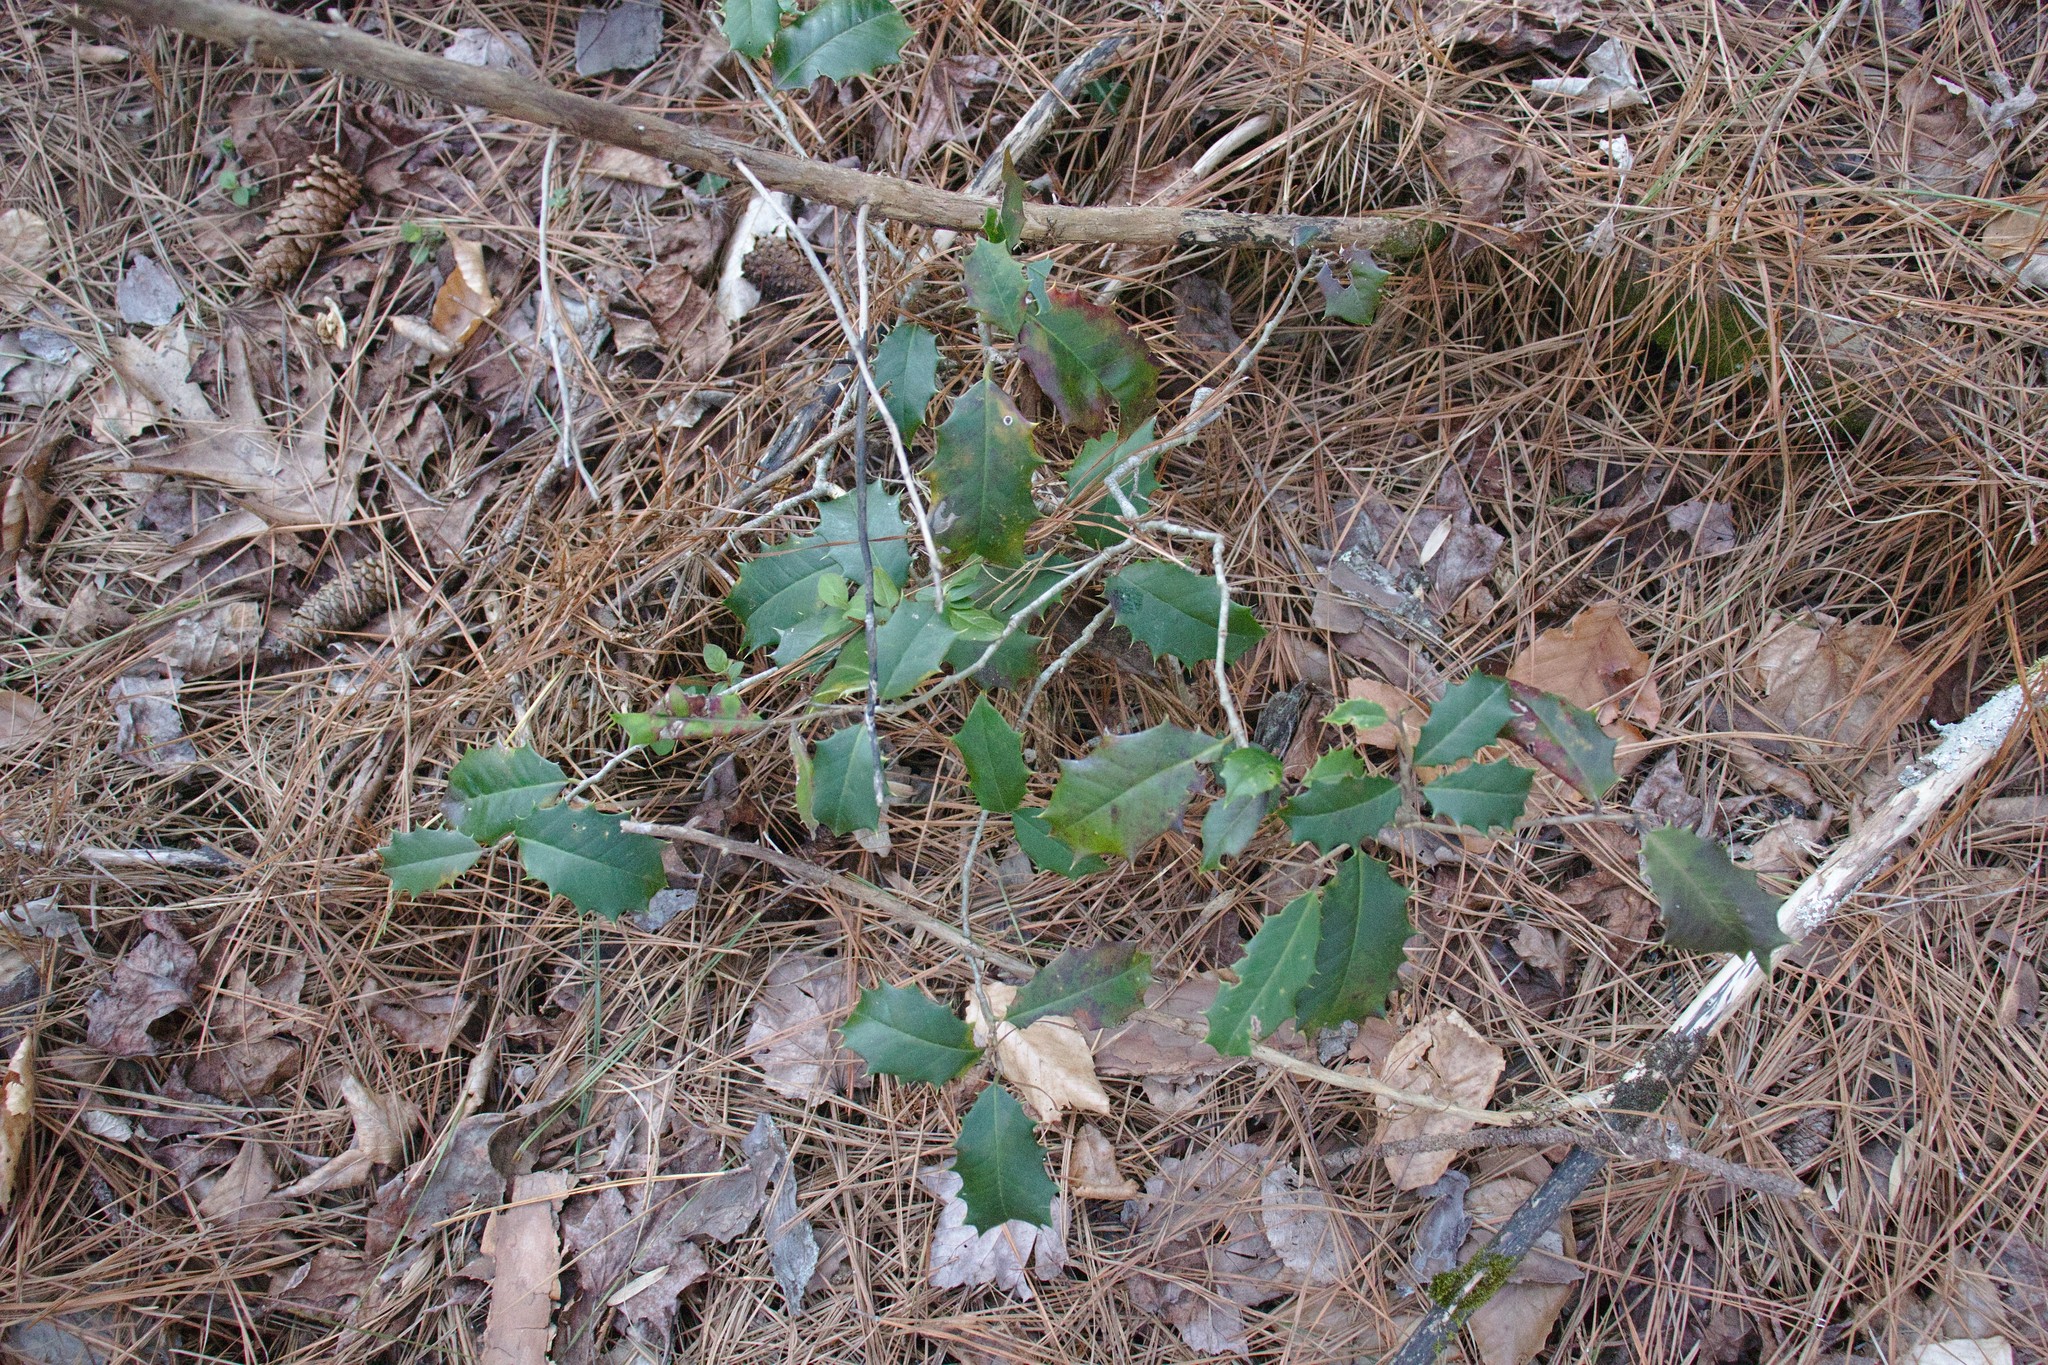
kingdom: Plantae
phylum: Tracheophyta
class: Magnoliopsida
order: Aquifoliales
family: Aquifoliaceae
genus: Ilex
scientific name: Ilex opaca
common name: American holly
